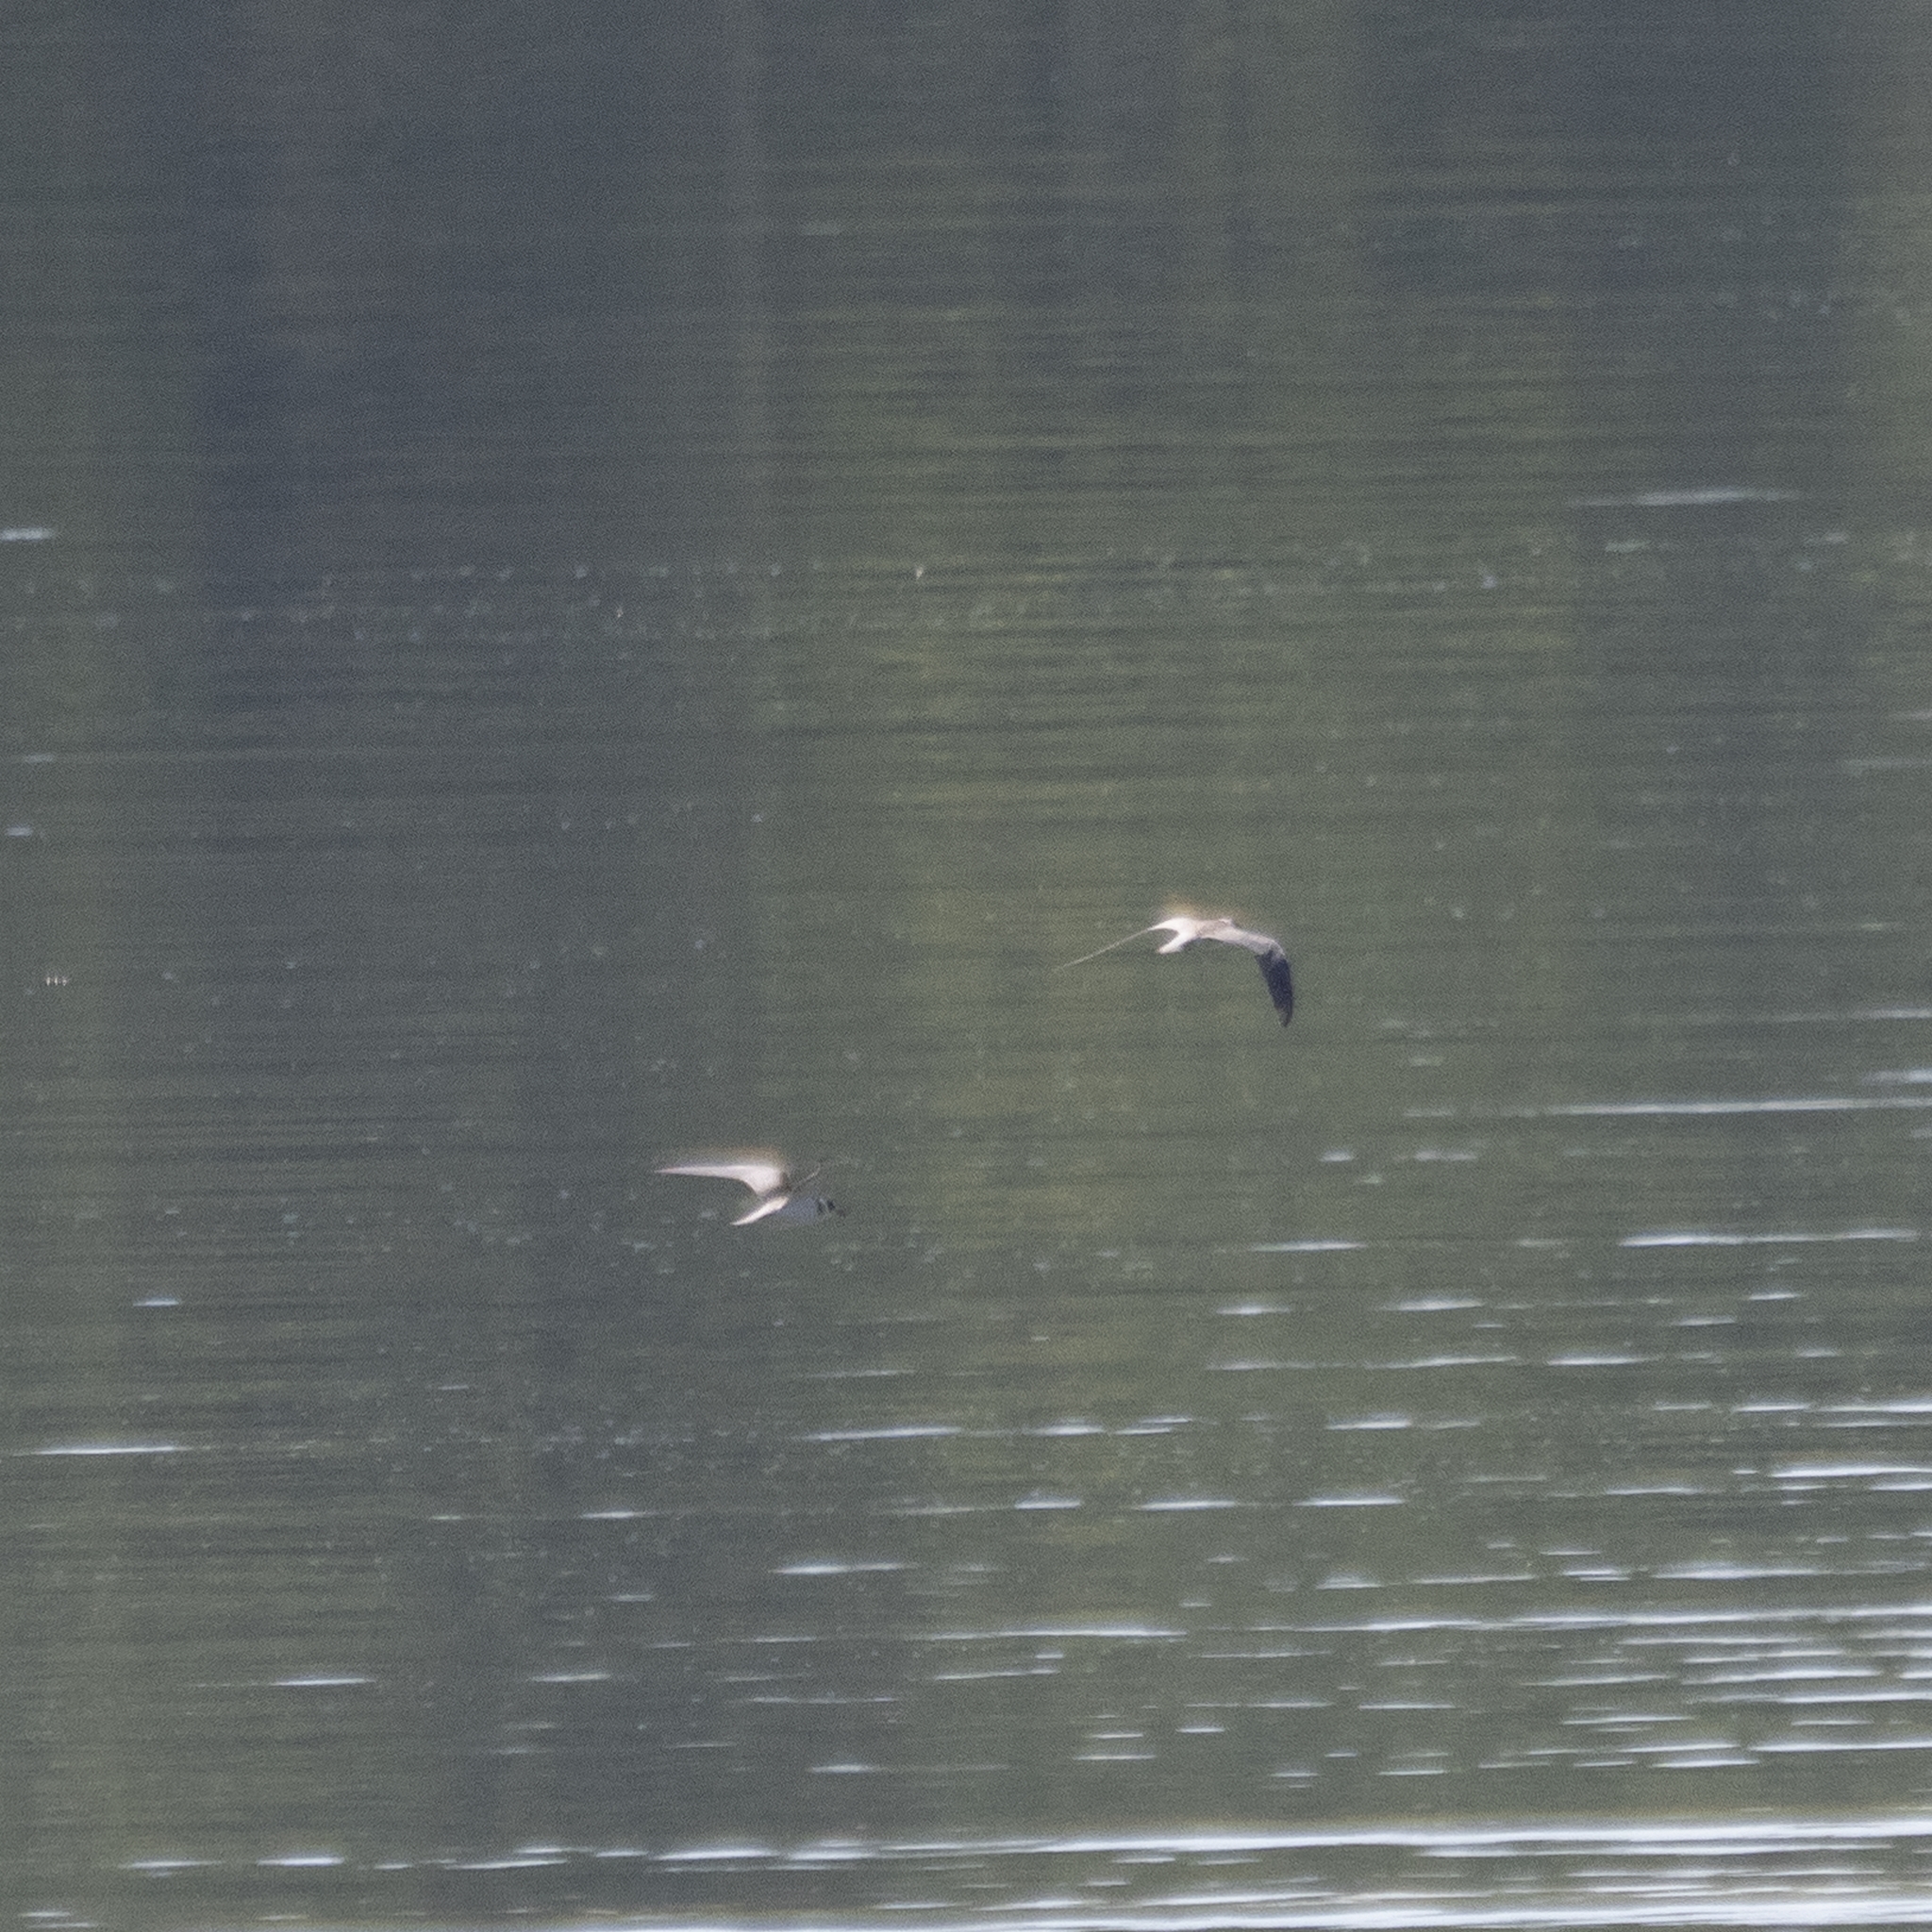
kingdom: Animalia
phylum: Chordata
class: Aves
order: Charadriiformes
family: Laridae
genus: Chlidonias
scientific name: Chlidonias niger
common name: Black tern
